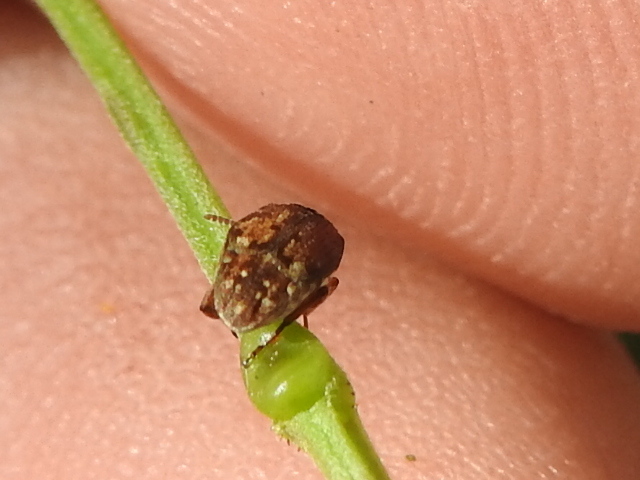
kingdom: Animalia
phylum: Arthropoda
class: Insecta
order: Coleoptera
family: Chrysomelidae
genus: Algarobius
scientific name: Algarobius bottimeri
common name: Kiawe bruchid
